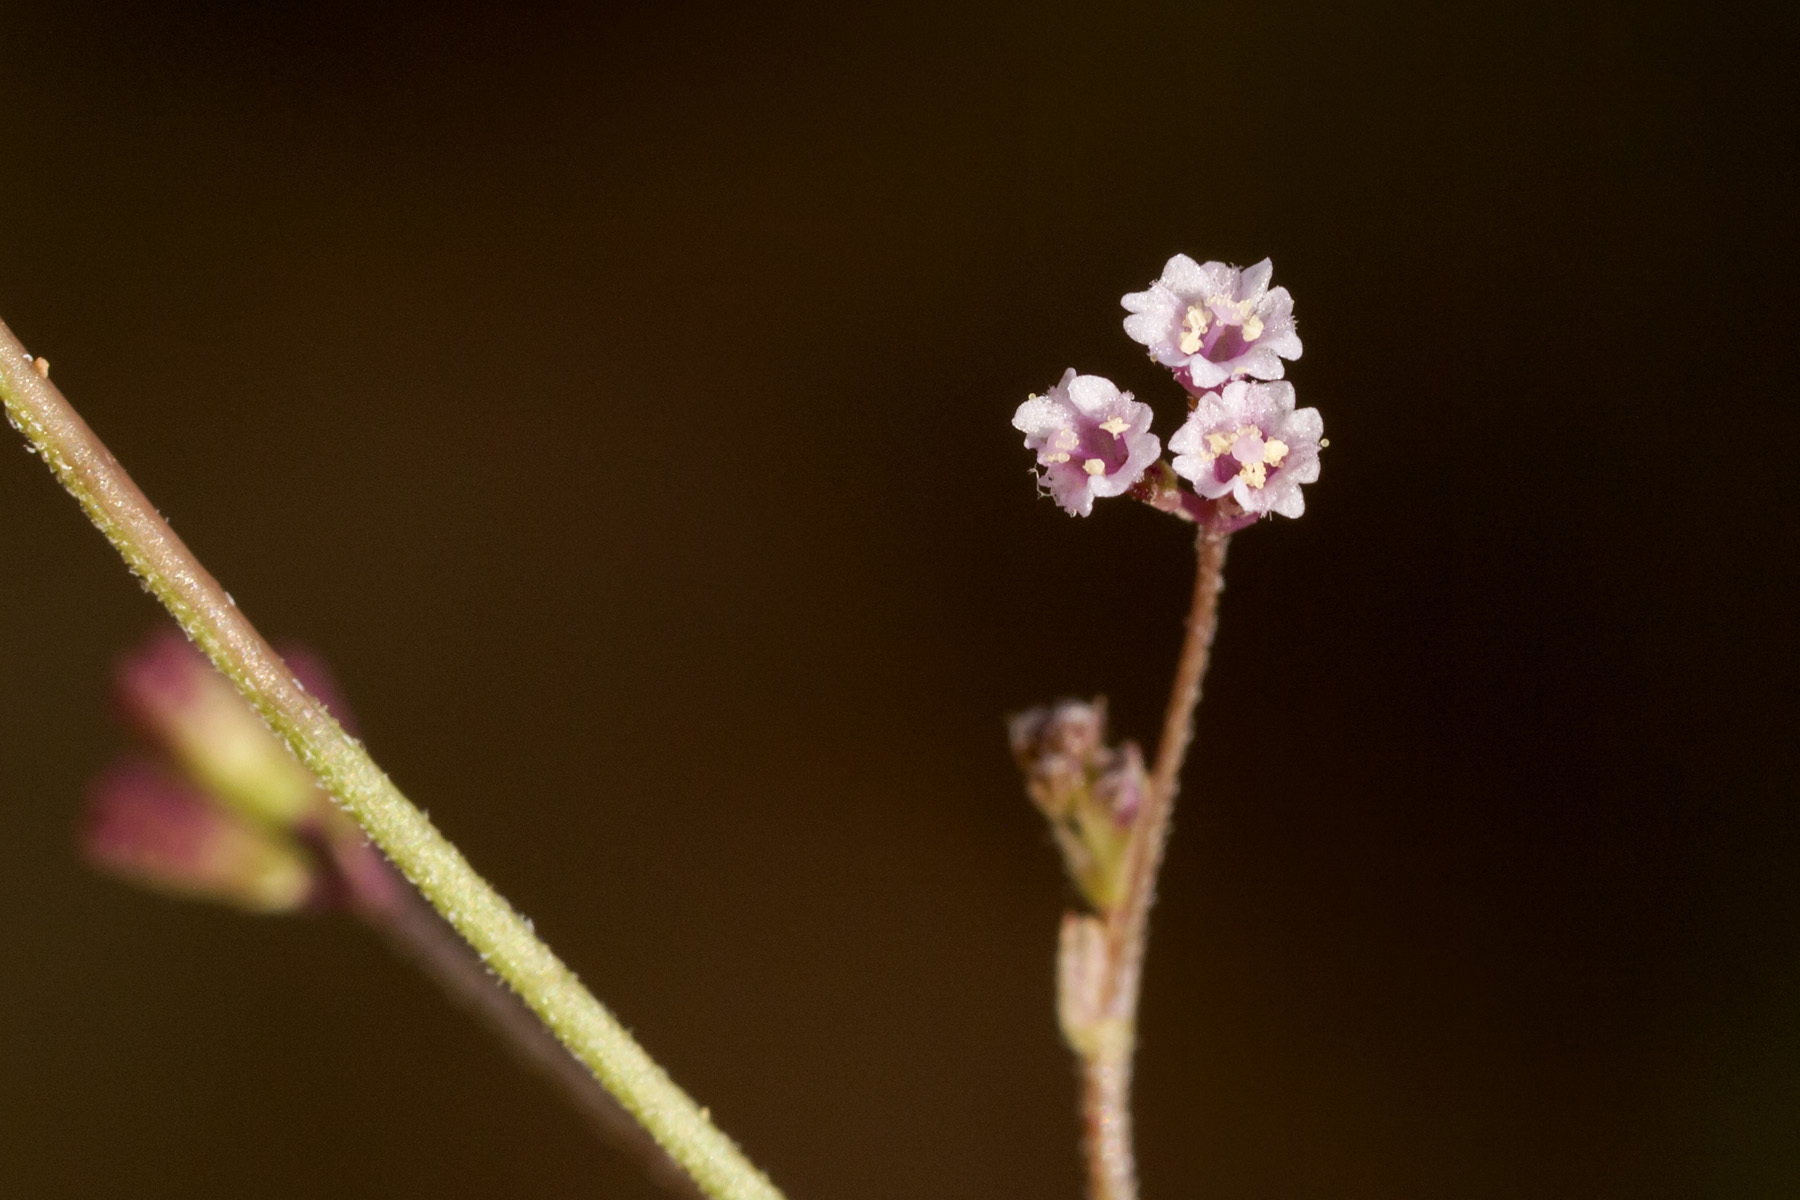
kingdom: Plantae
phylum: Tracheophyta
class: Magnoliopsida
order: Caryophyllales
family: Nyctaginaceae
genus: Boerhavia
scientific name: Boerhavia triquetra
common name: Creeping sticky-stem
